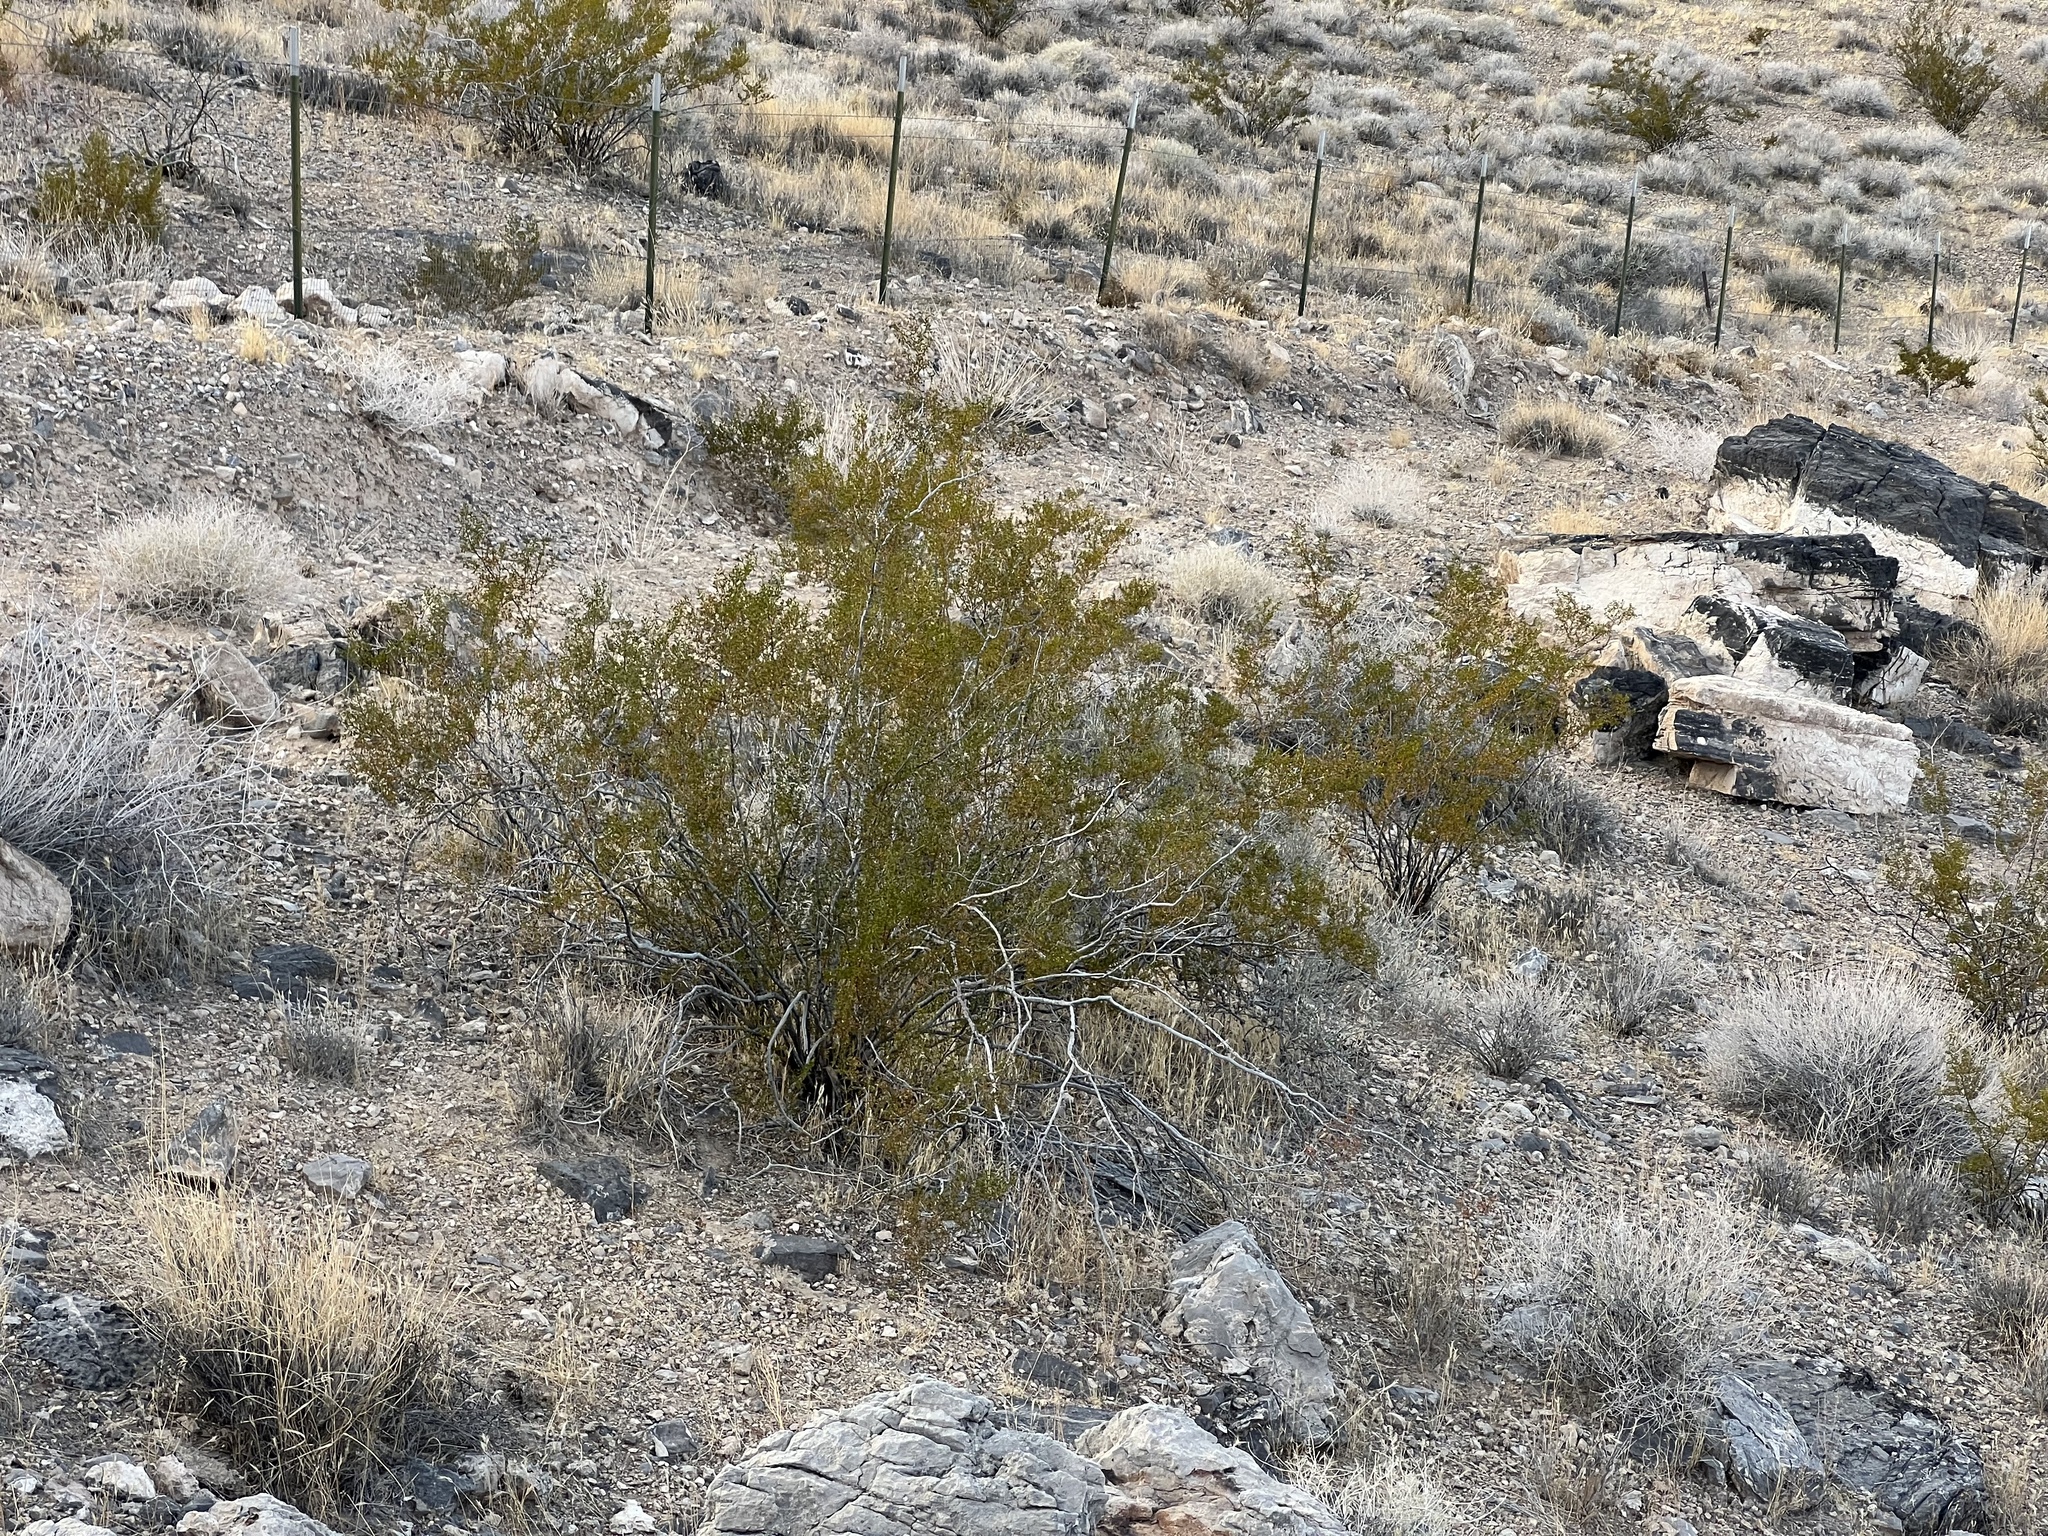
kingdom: Plantae
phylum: Tracheophyta
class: Magnoliopsida
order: Zygophyllales
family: Zygophyllaceae
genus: Larrea
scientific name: Larrea tridentata
